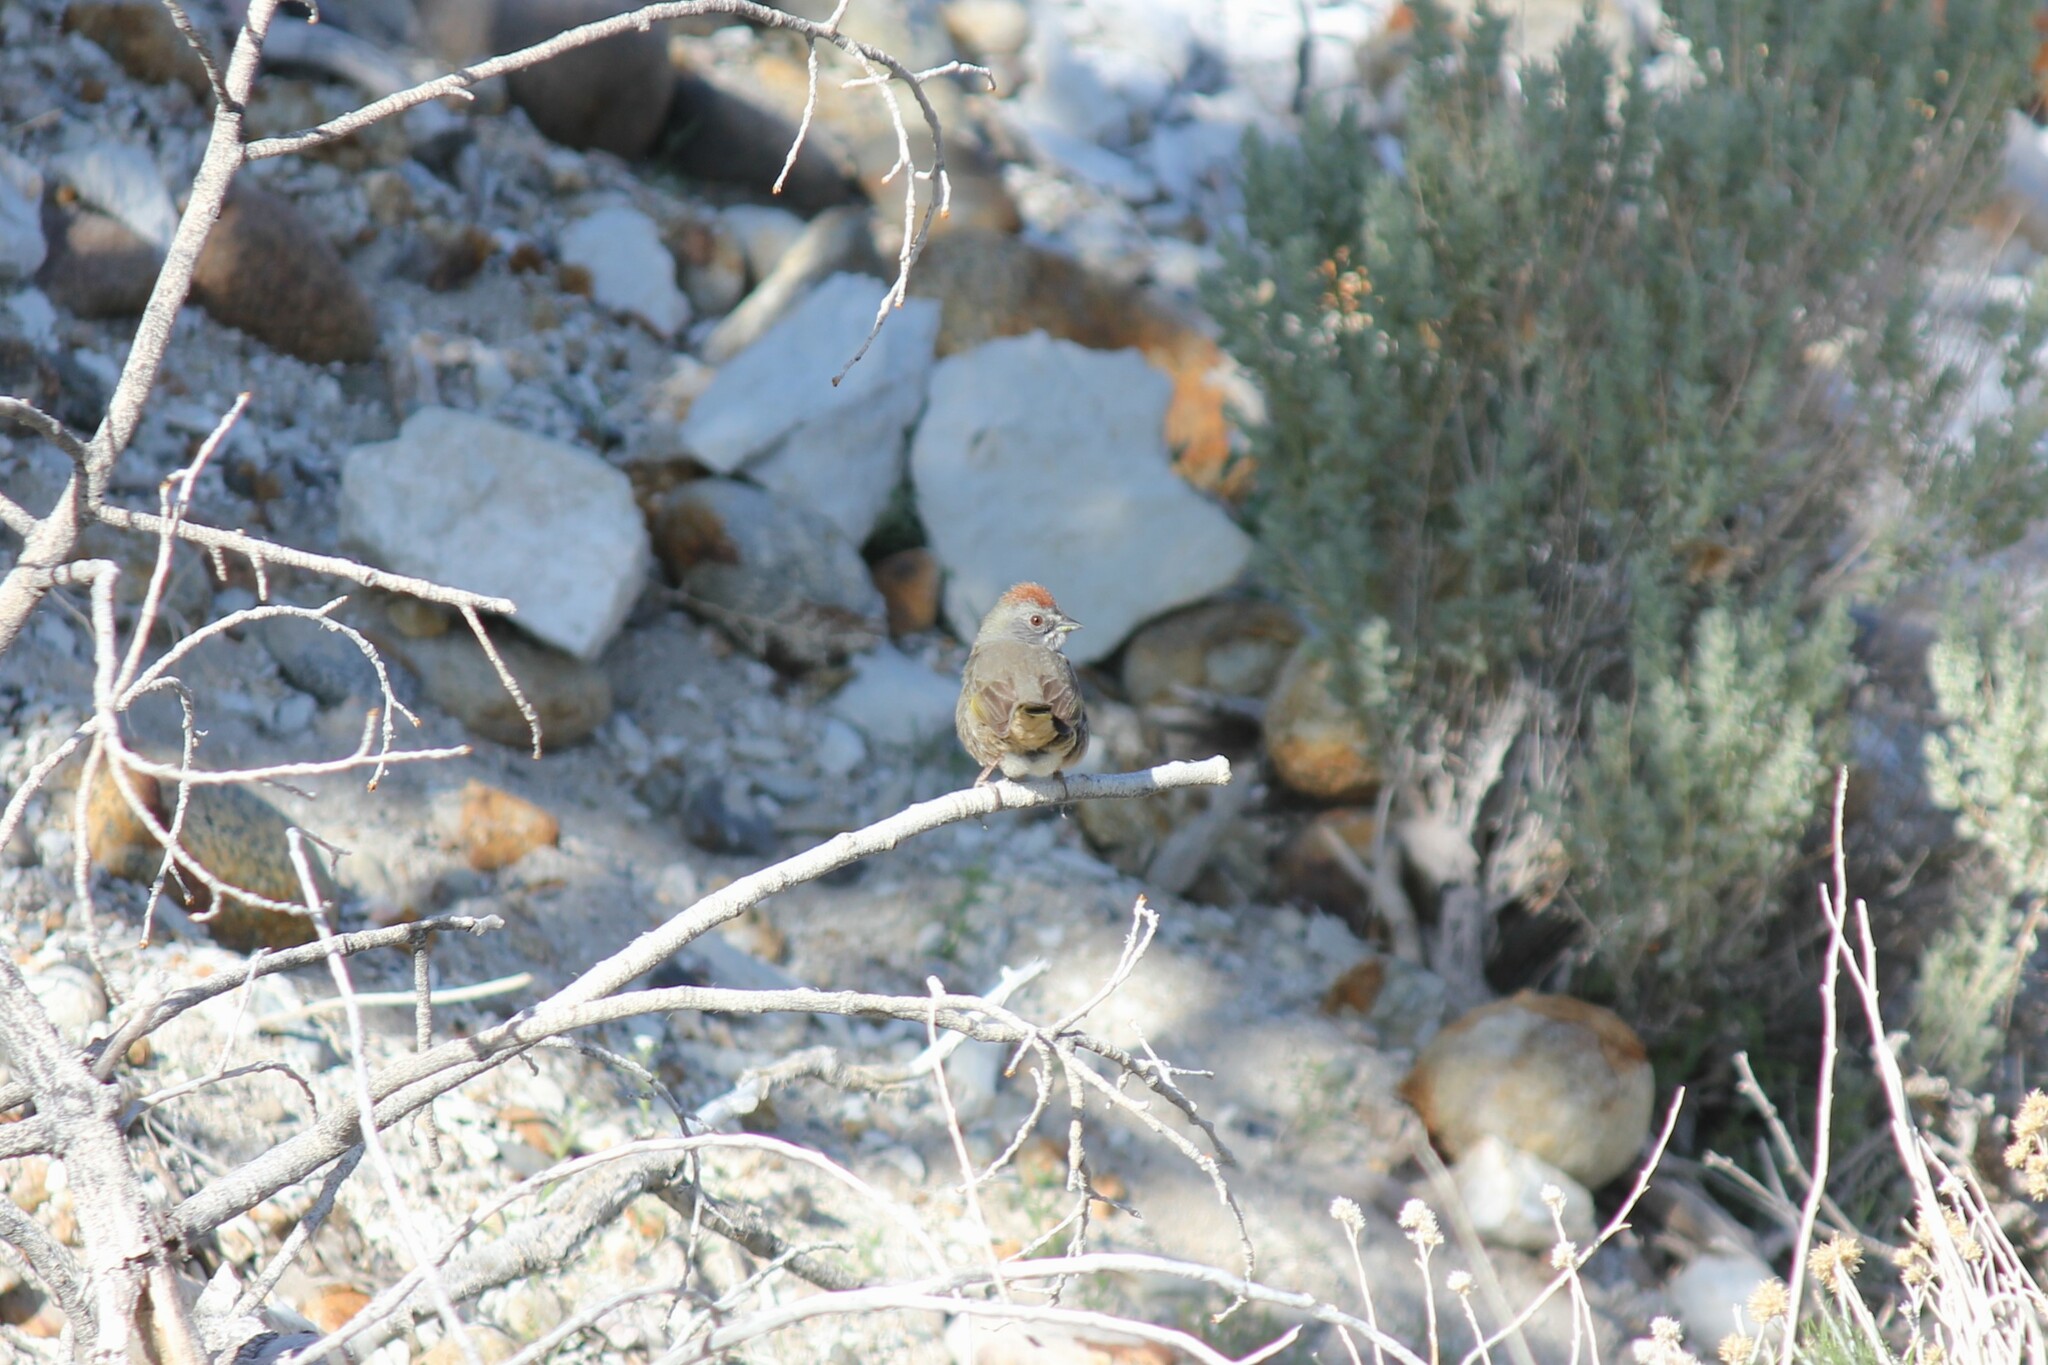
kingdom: Animalia
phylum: Chordata
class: Aves
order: Passeriformes
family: Passerellidae
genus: Pipilo
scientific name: Pipilo chlorurus
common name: Green-tailed towhee
